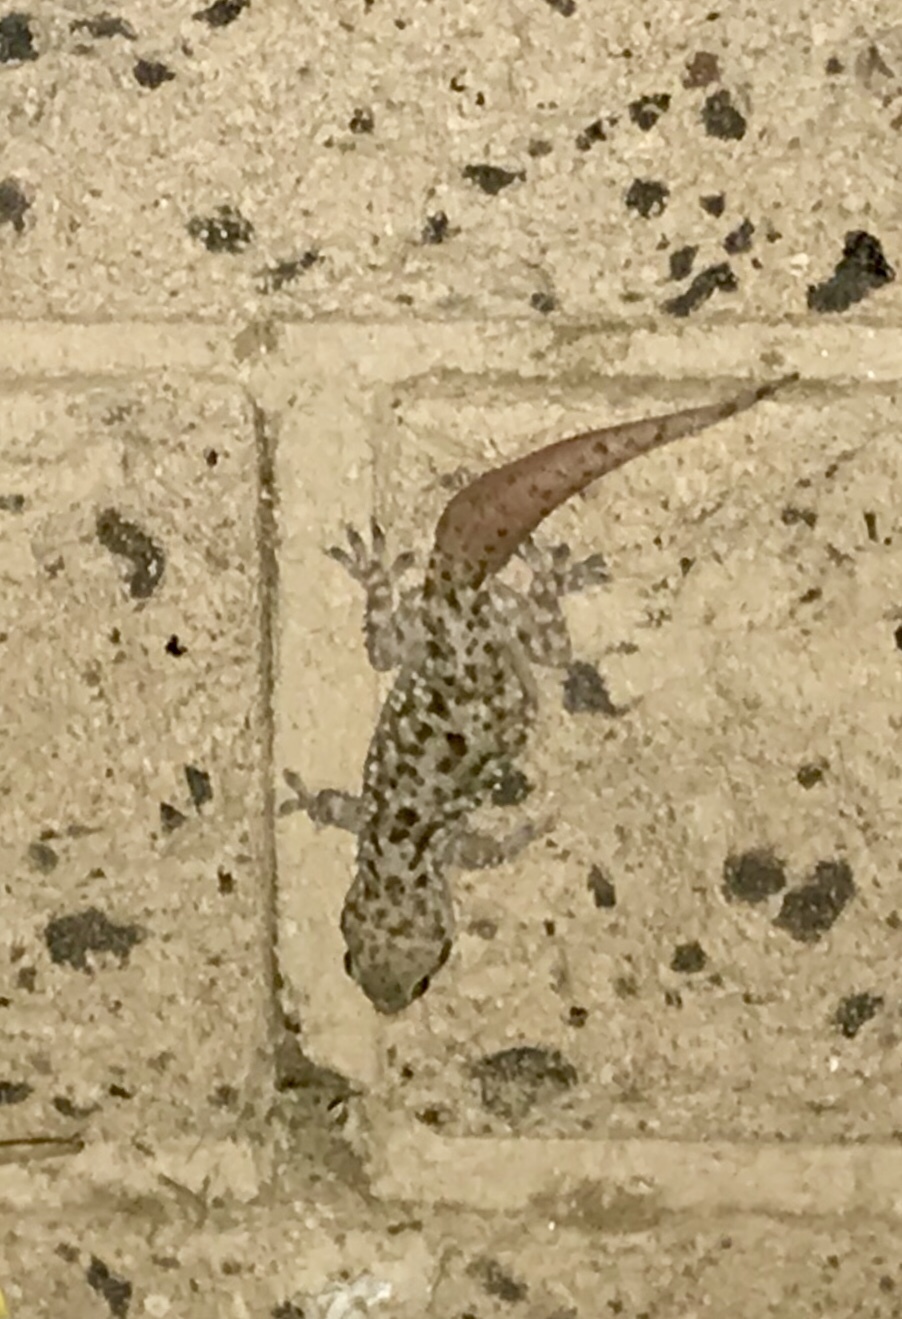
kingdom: Animalia
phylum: Chordata
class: Squamata
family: Gekkonidae
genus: Hemidactylus
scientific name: Hemidactylus turcicus
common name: Turkish gecko
